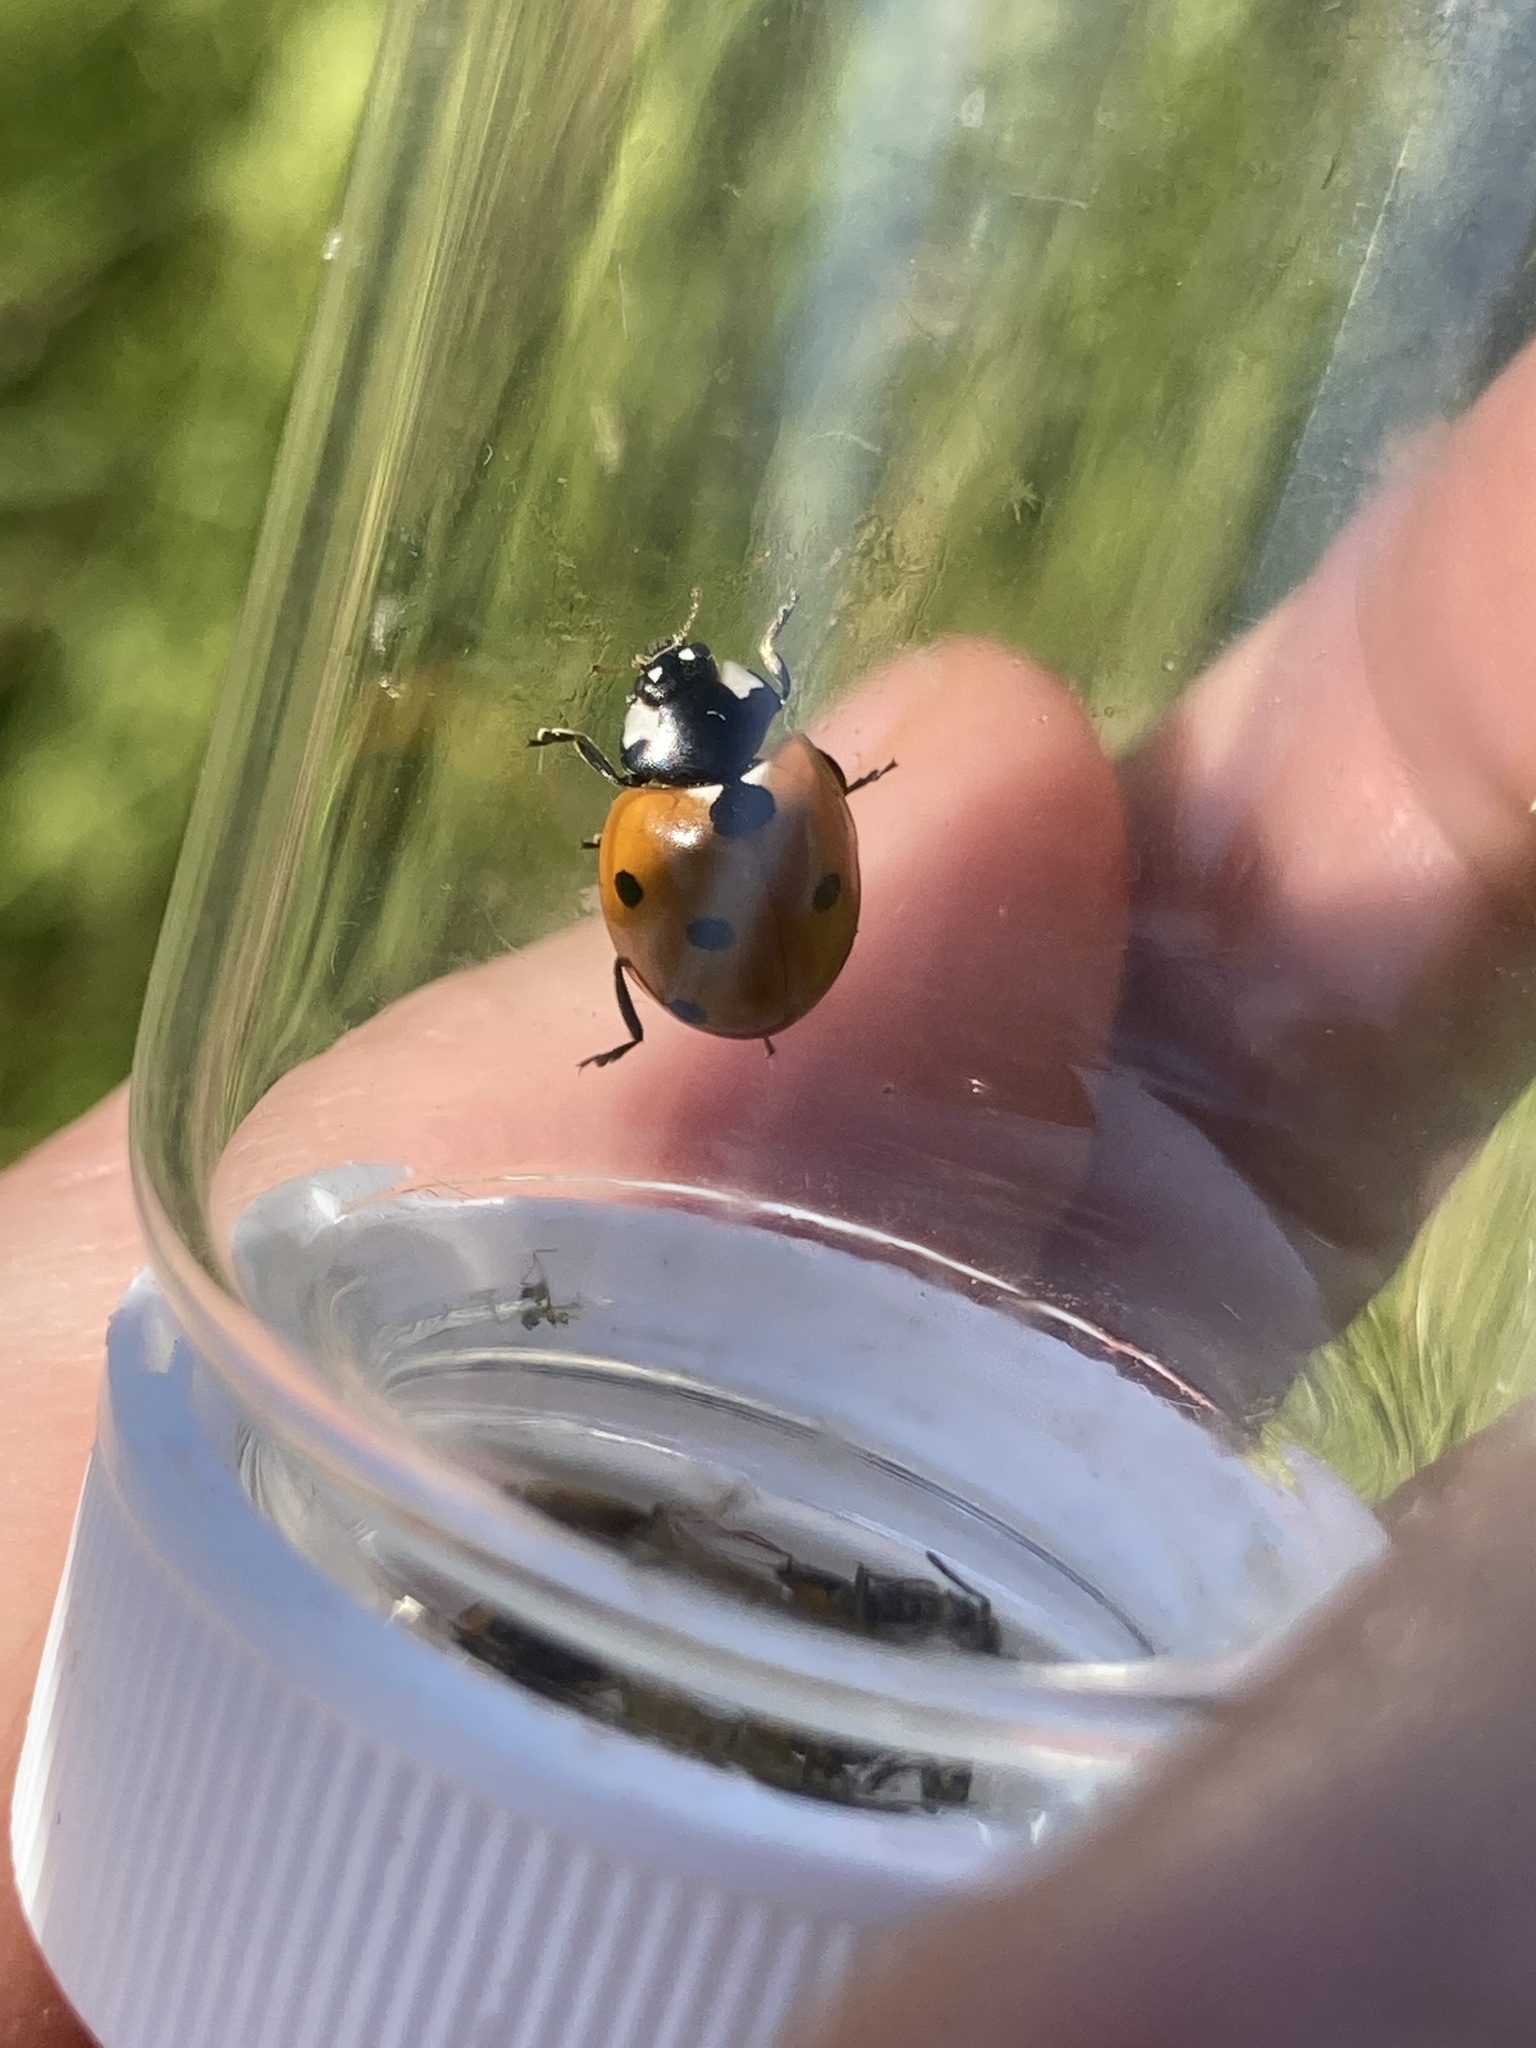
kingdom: Animalia
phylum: Arthropoda
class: Insecta
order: Coleoptera
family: Coccinellidae
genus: Coccinella
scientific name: Coccinella septempunctata
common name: Sevenspotted lady beetle
